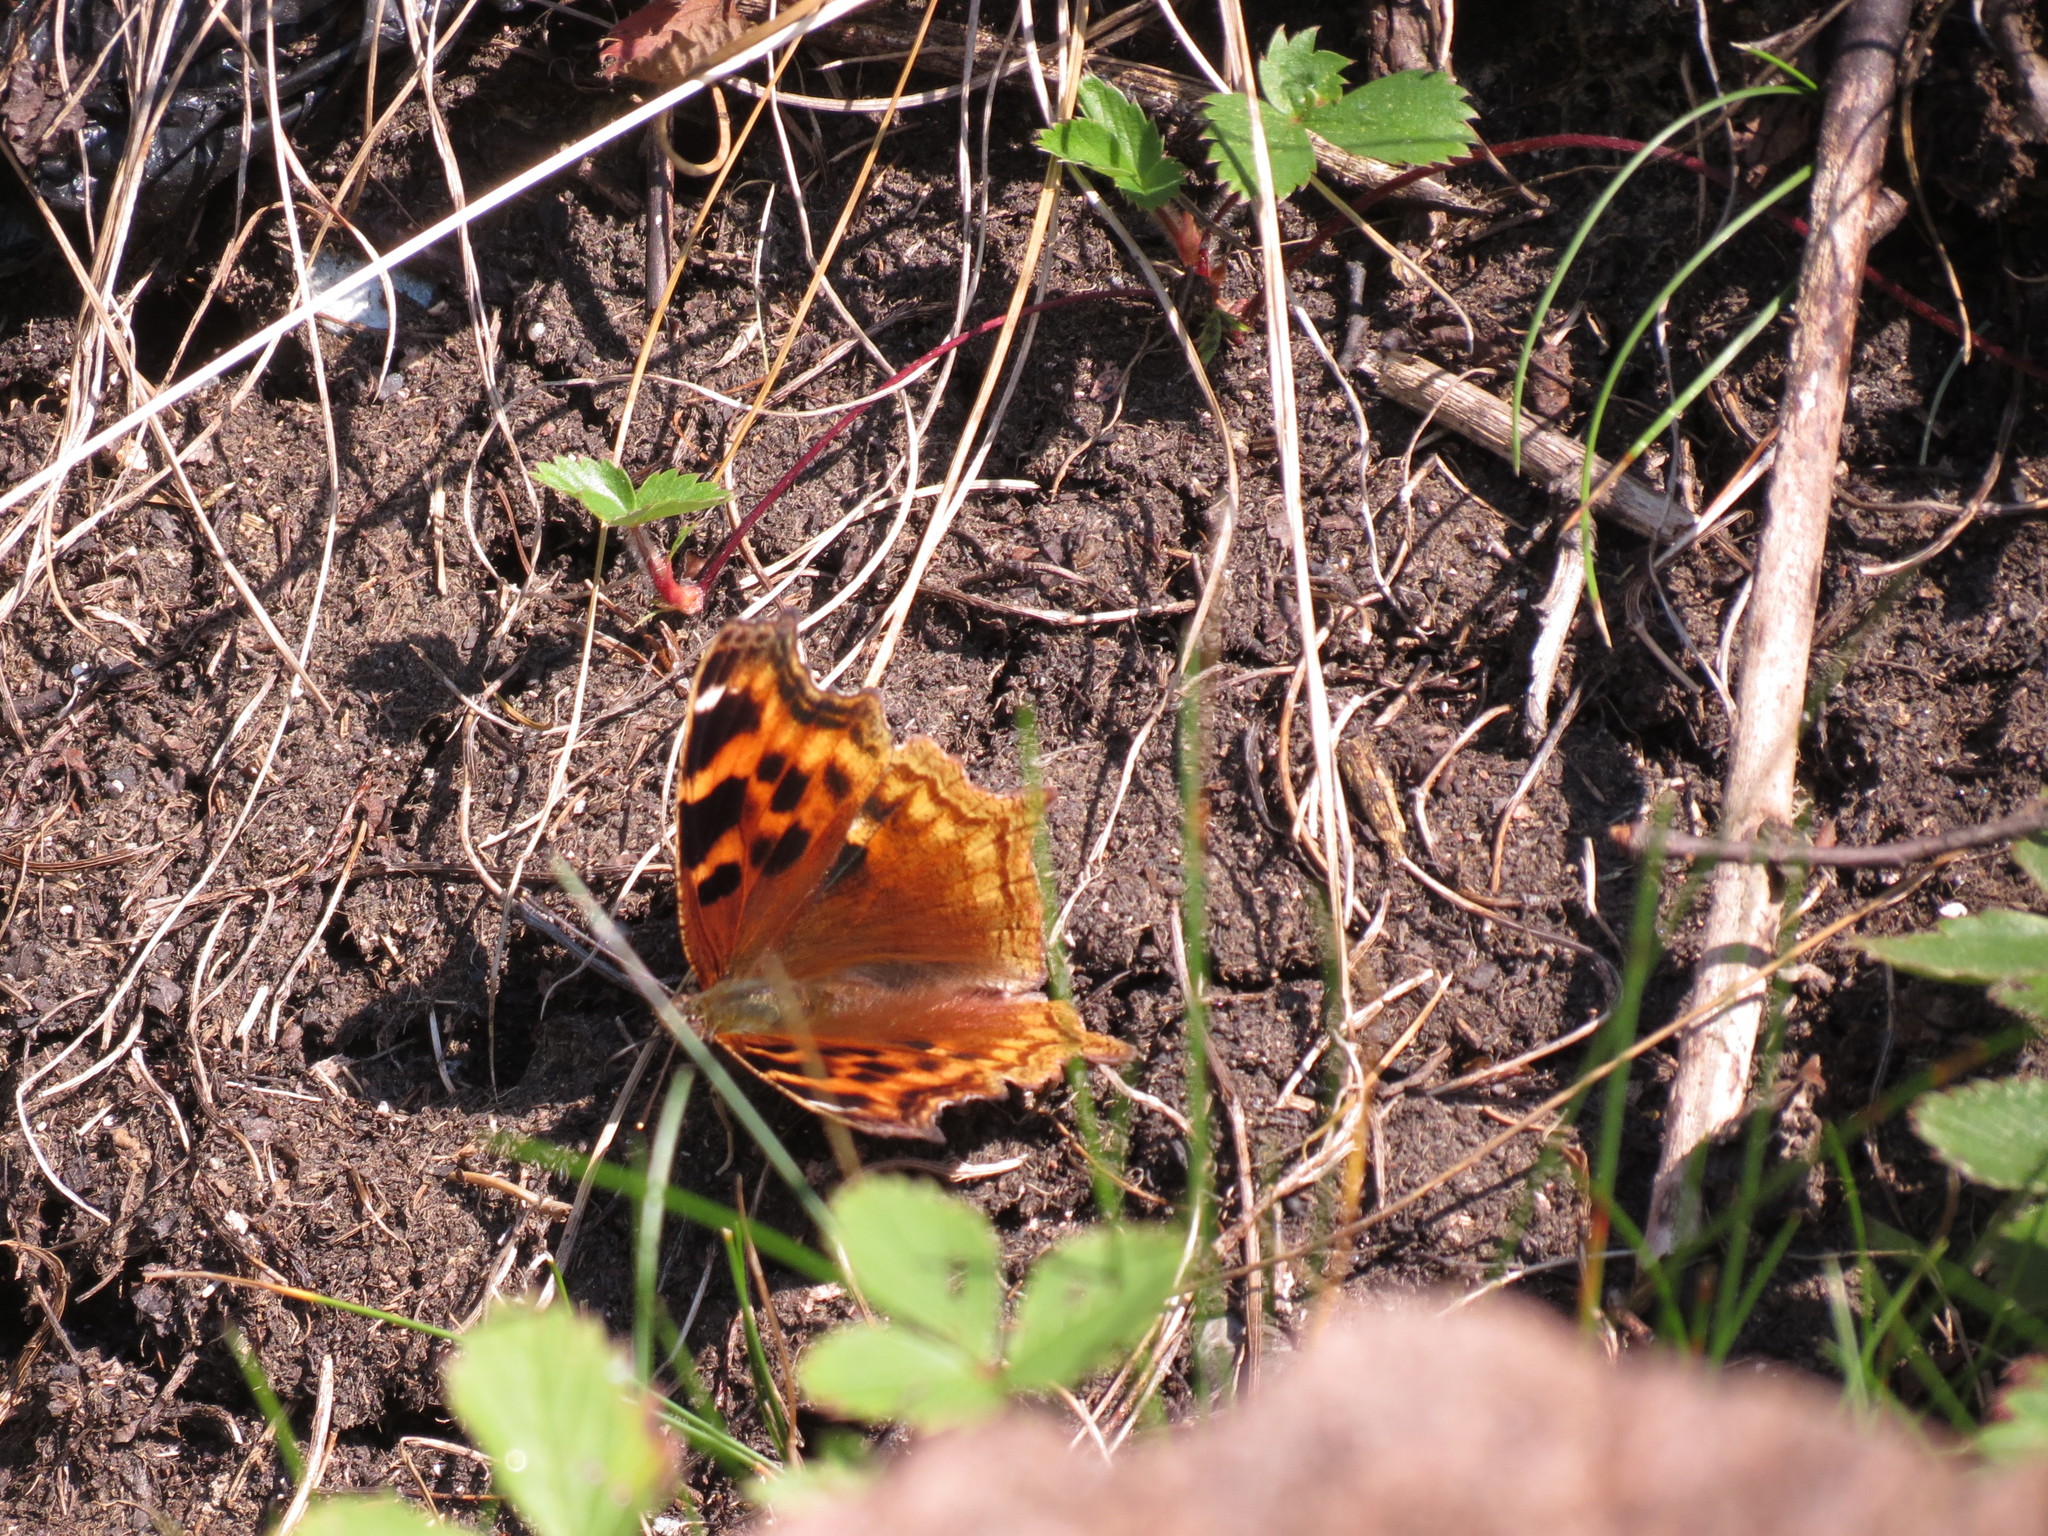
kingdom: Animalia
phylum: Arthropoda
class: Insecta
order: Lepidoptera
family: Nymphalidae
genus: Polygonia
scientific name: Polygonia vaualbum
